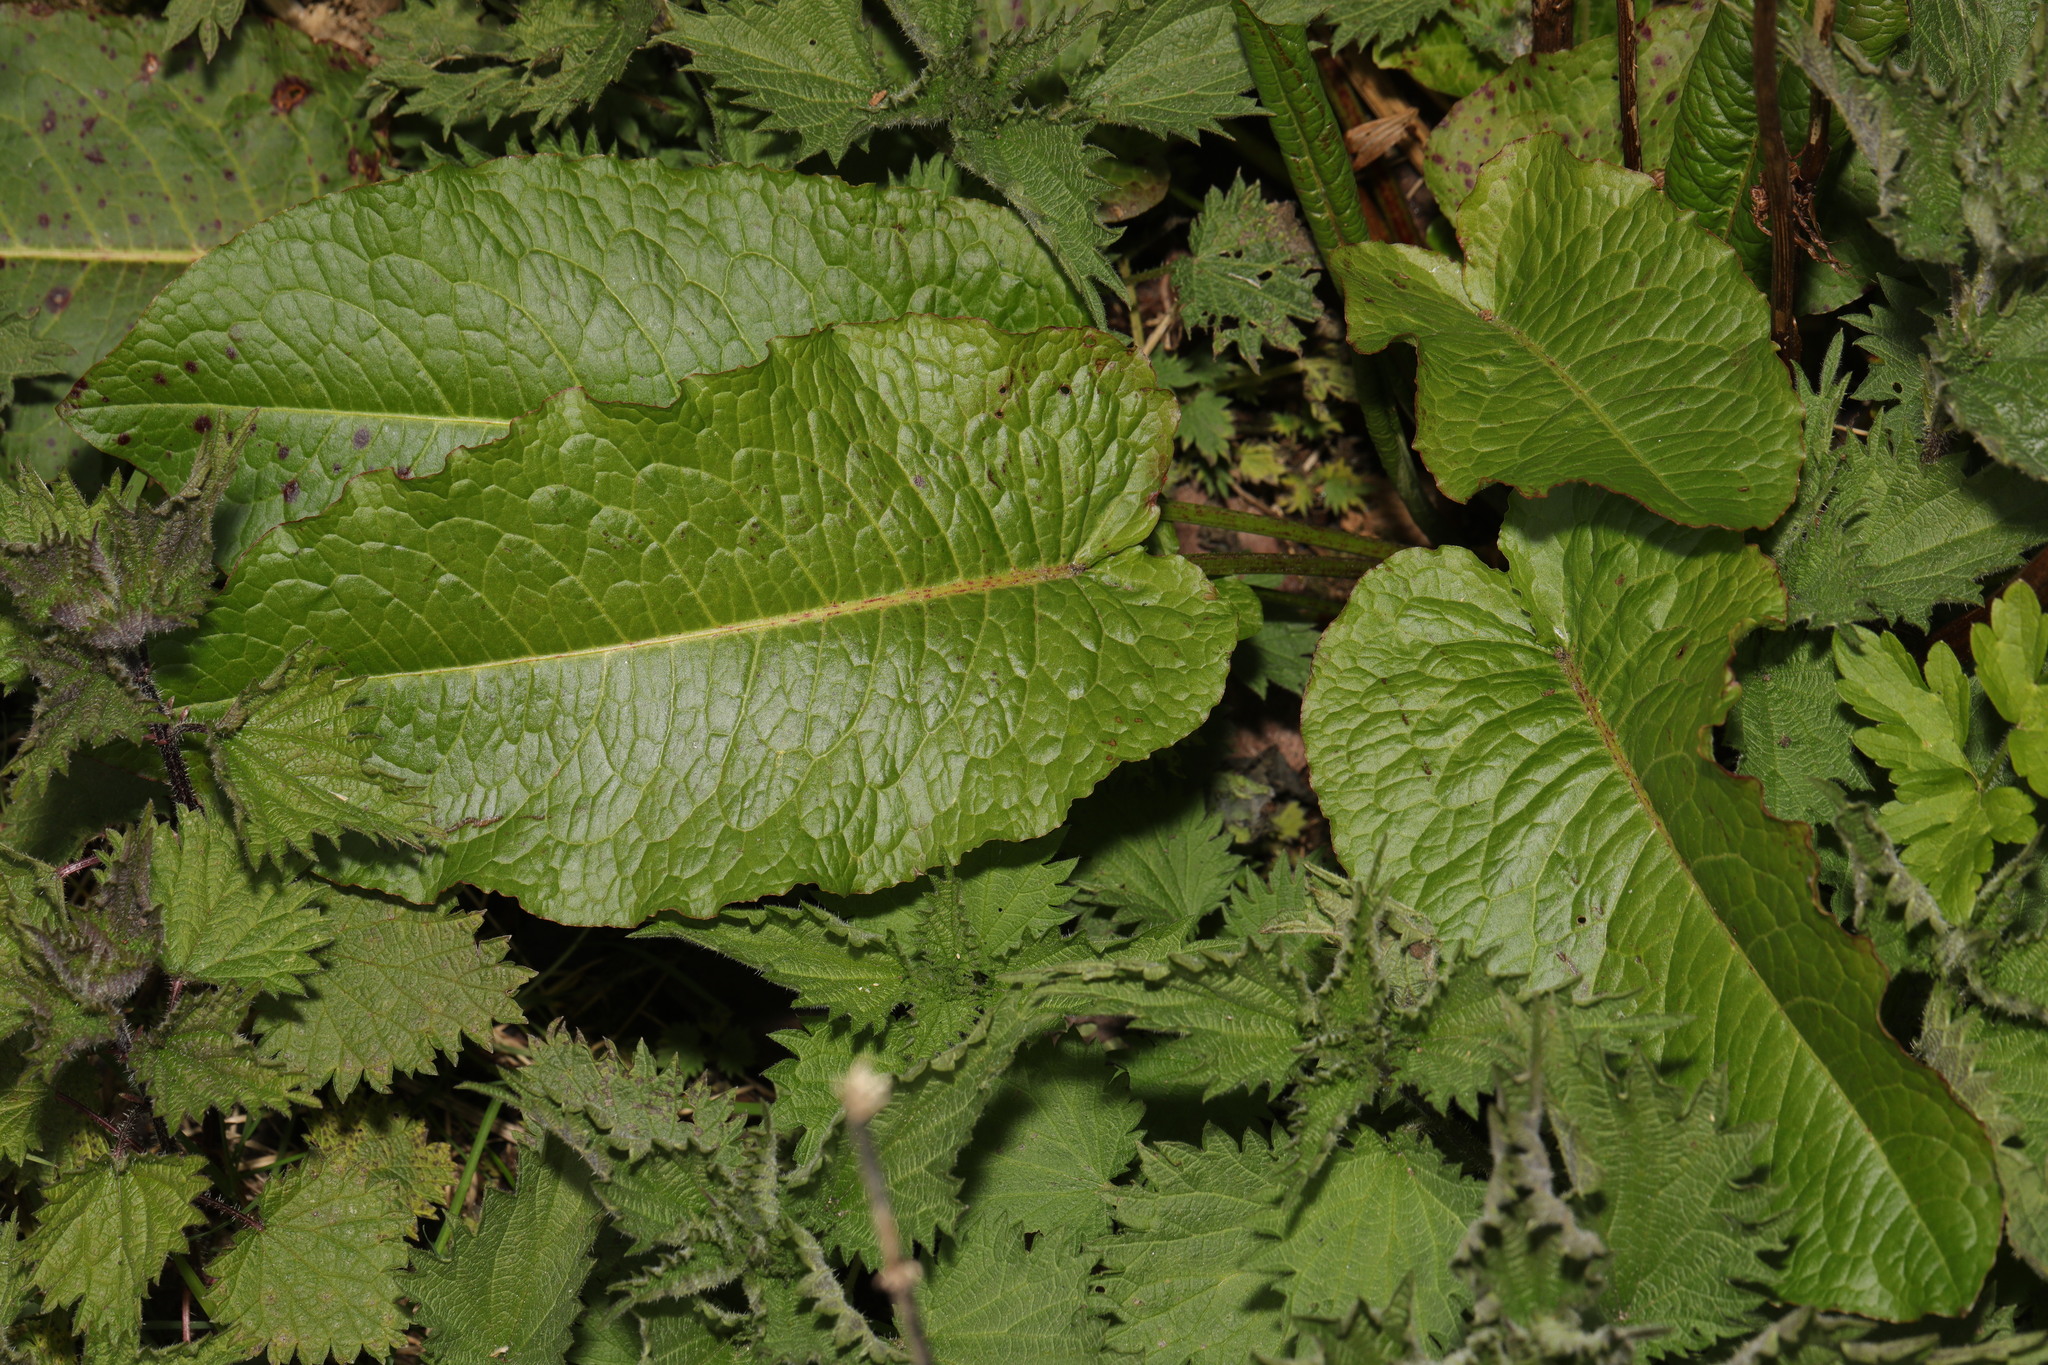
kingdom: Plantae
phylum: Tracheophyta
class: Magnoliopsida
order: Caryophyllales
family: Polygonaceae
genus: Rumex
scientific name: Rumex obtusifolius
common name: Bitter dock
